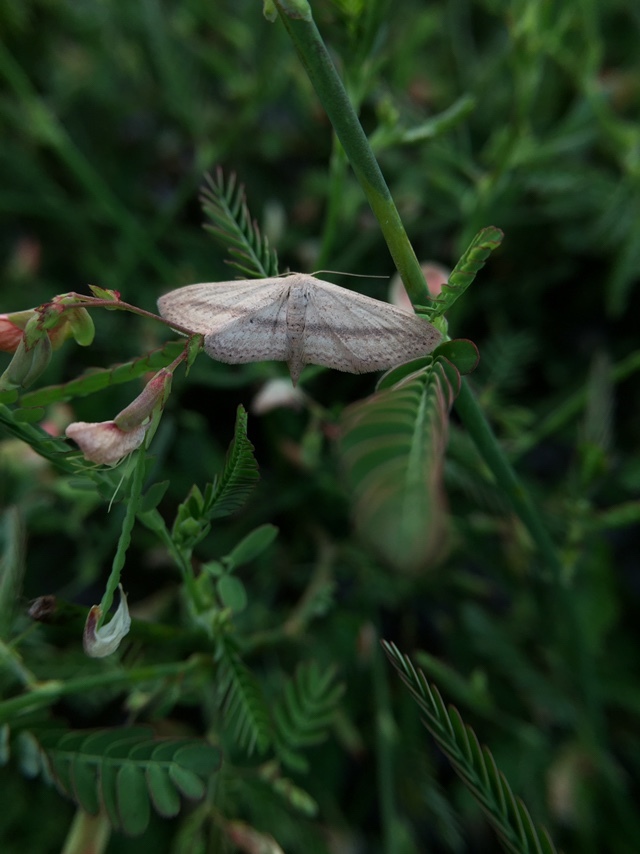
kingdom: Animalia
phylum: Arthropoda
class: Insecta
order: Lepidoptera
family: Geometridae
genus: Scopula
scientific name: Scopula emissaria
